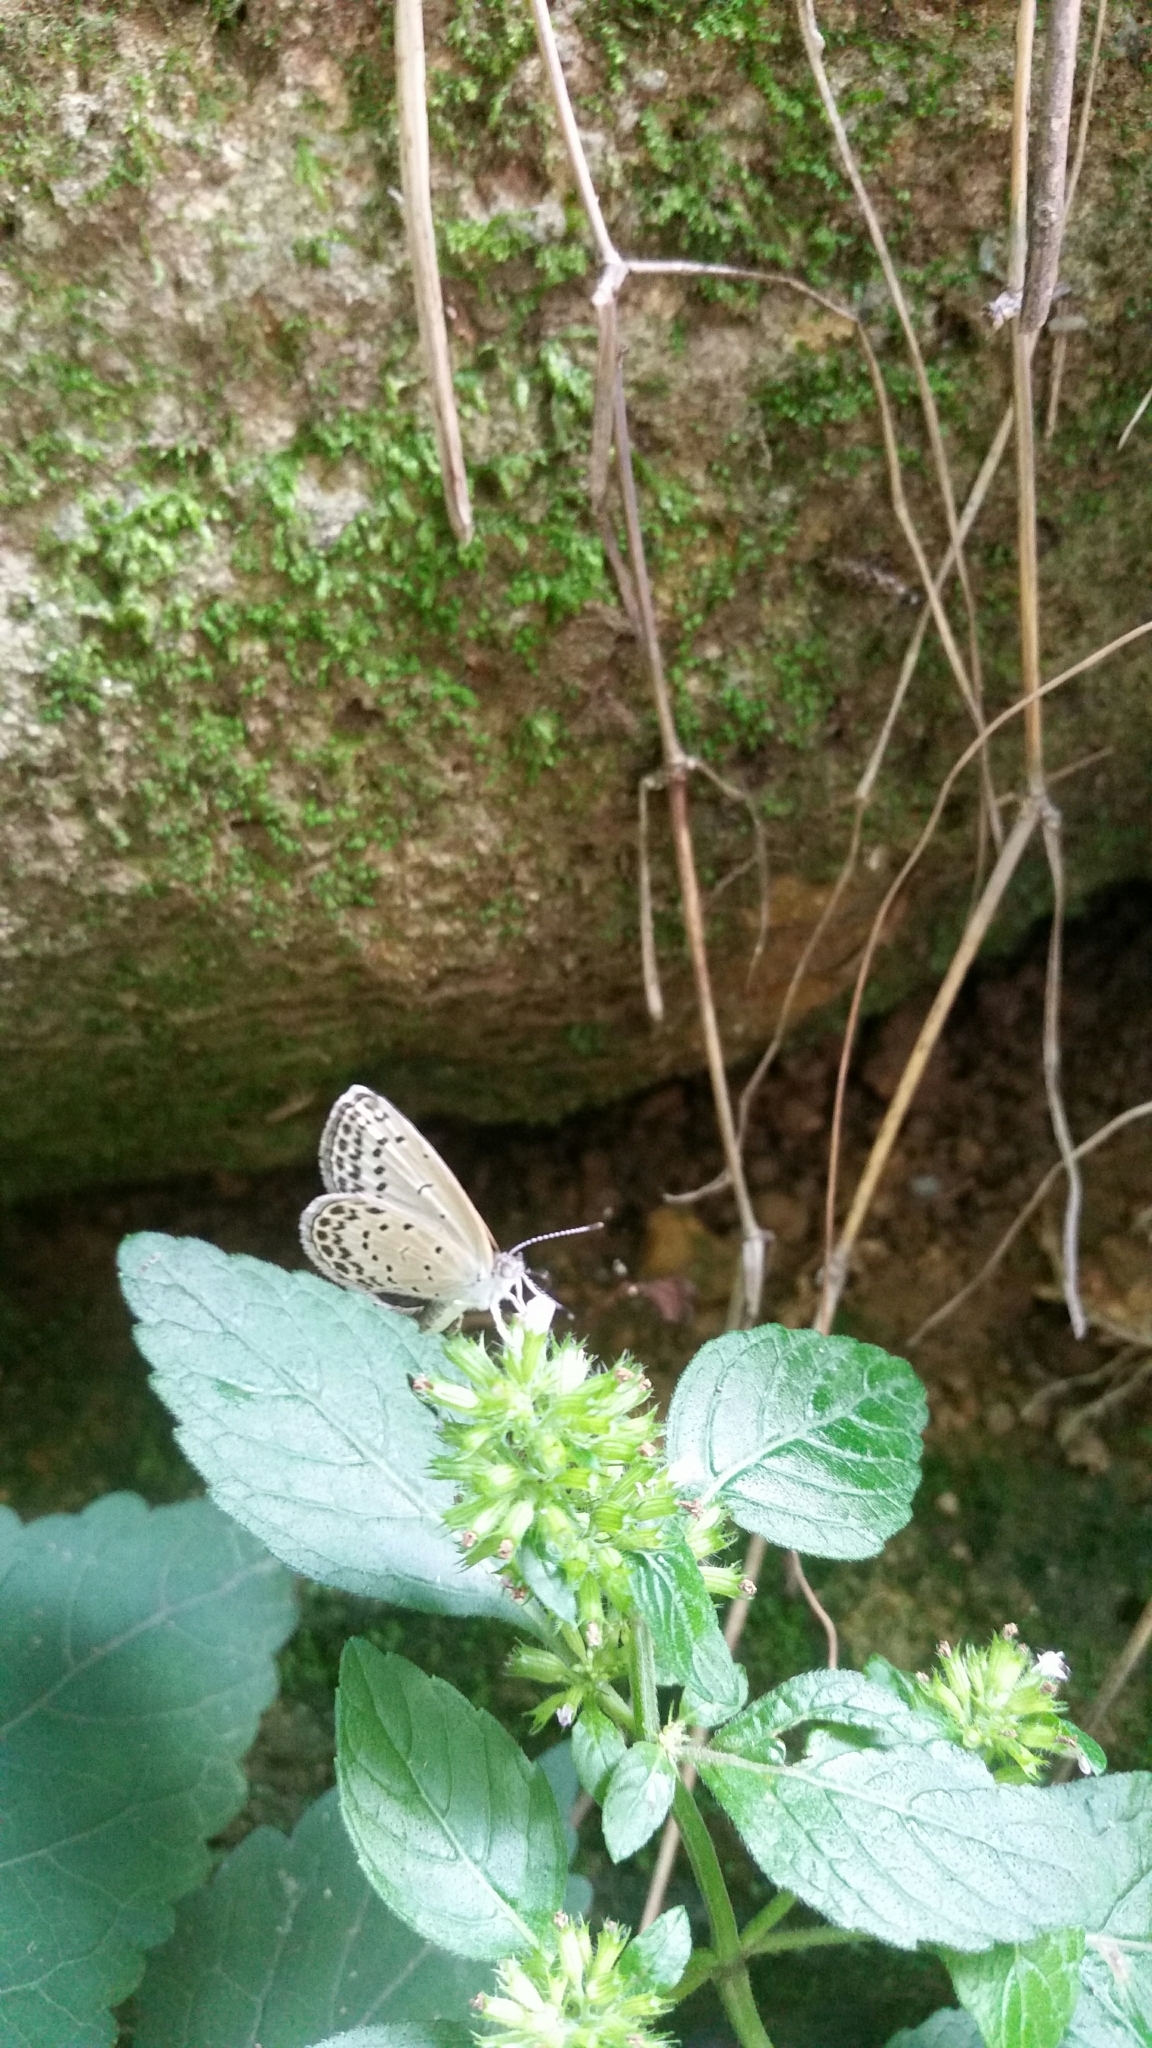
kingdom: Animalia
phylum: Arthropoda
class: Insecta
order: Lepidoptera
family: Lycaenidae
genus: Pseudozizeeria
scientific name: Pseudozizeeria maha
